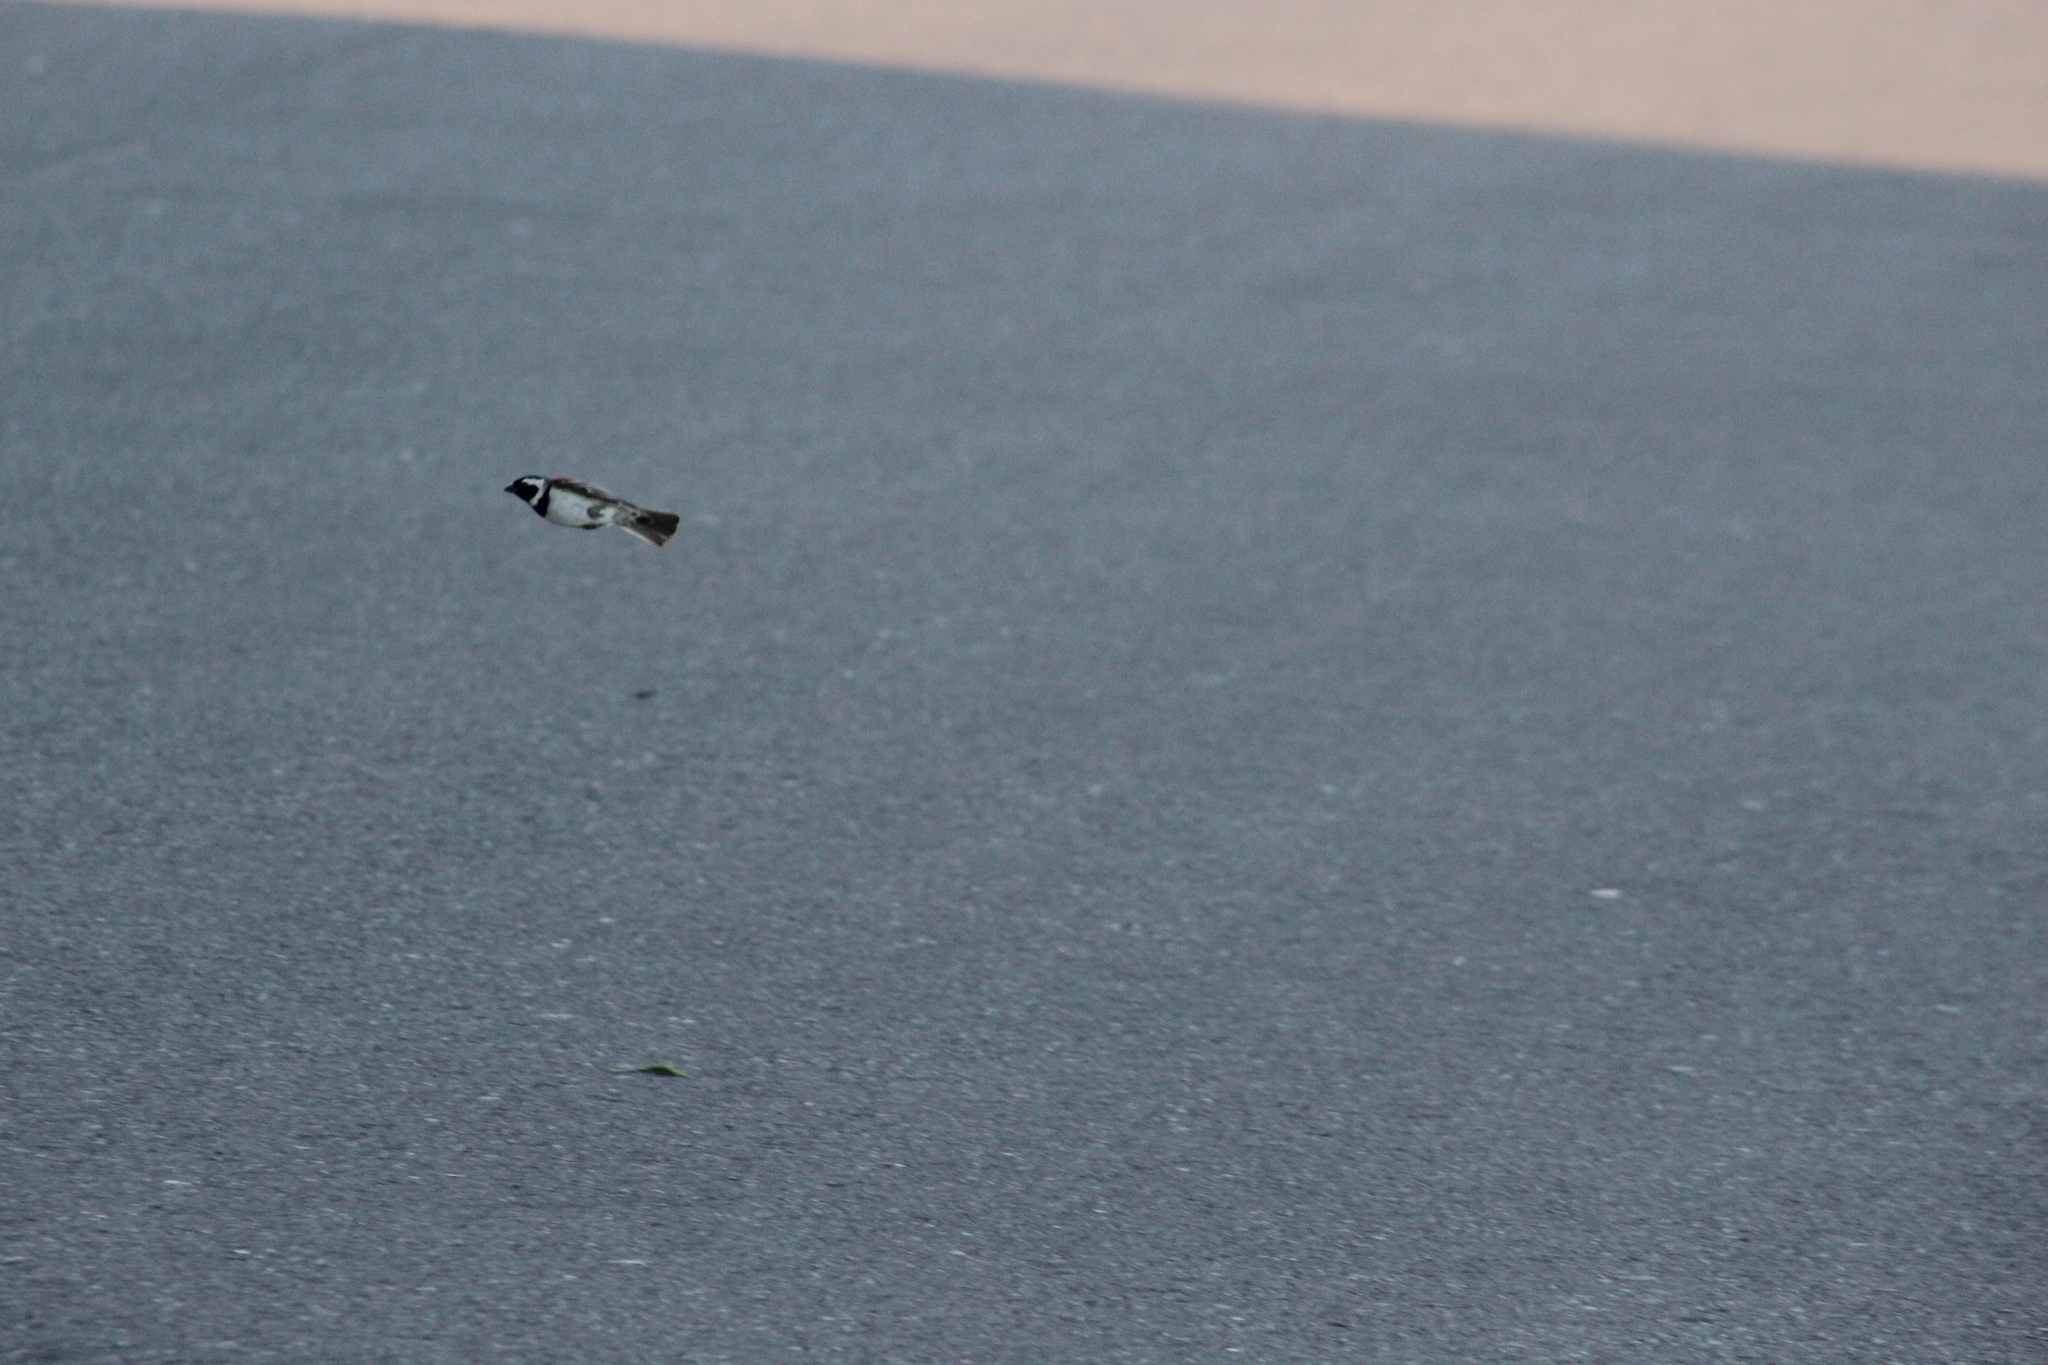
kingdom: Animalia
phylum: Chordata
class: Aves
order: Passeriformes
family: Passeridae
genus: Passer
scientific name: Passer melanurus
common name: Cape sparrow
